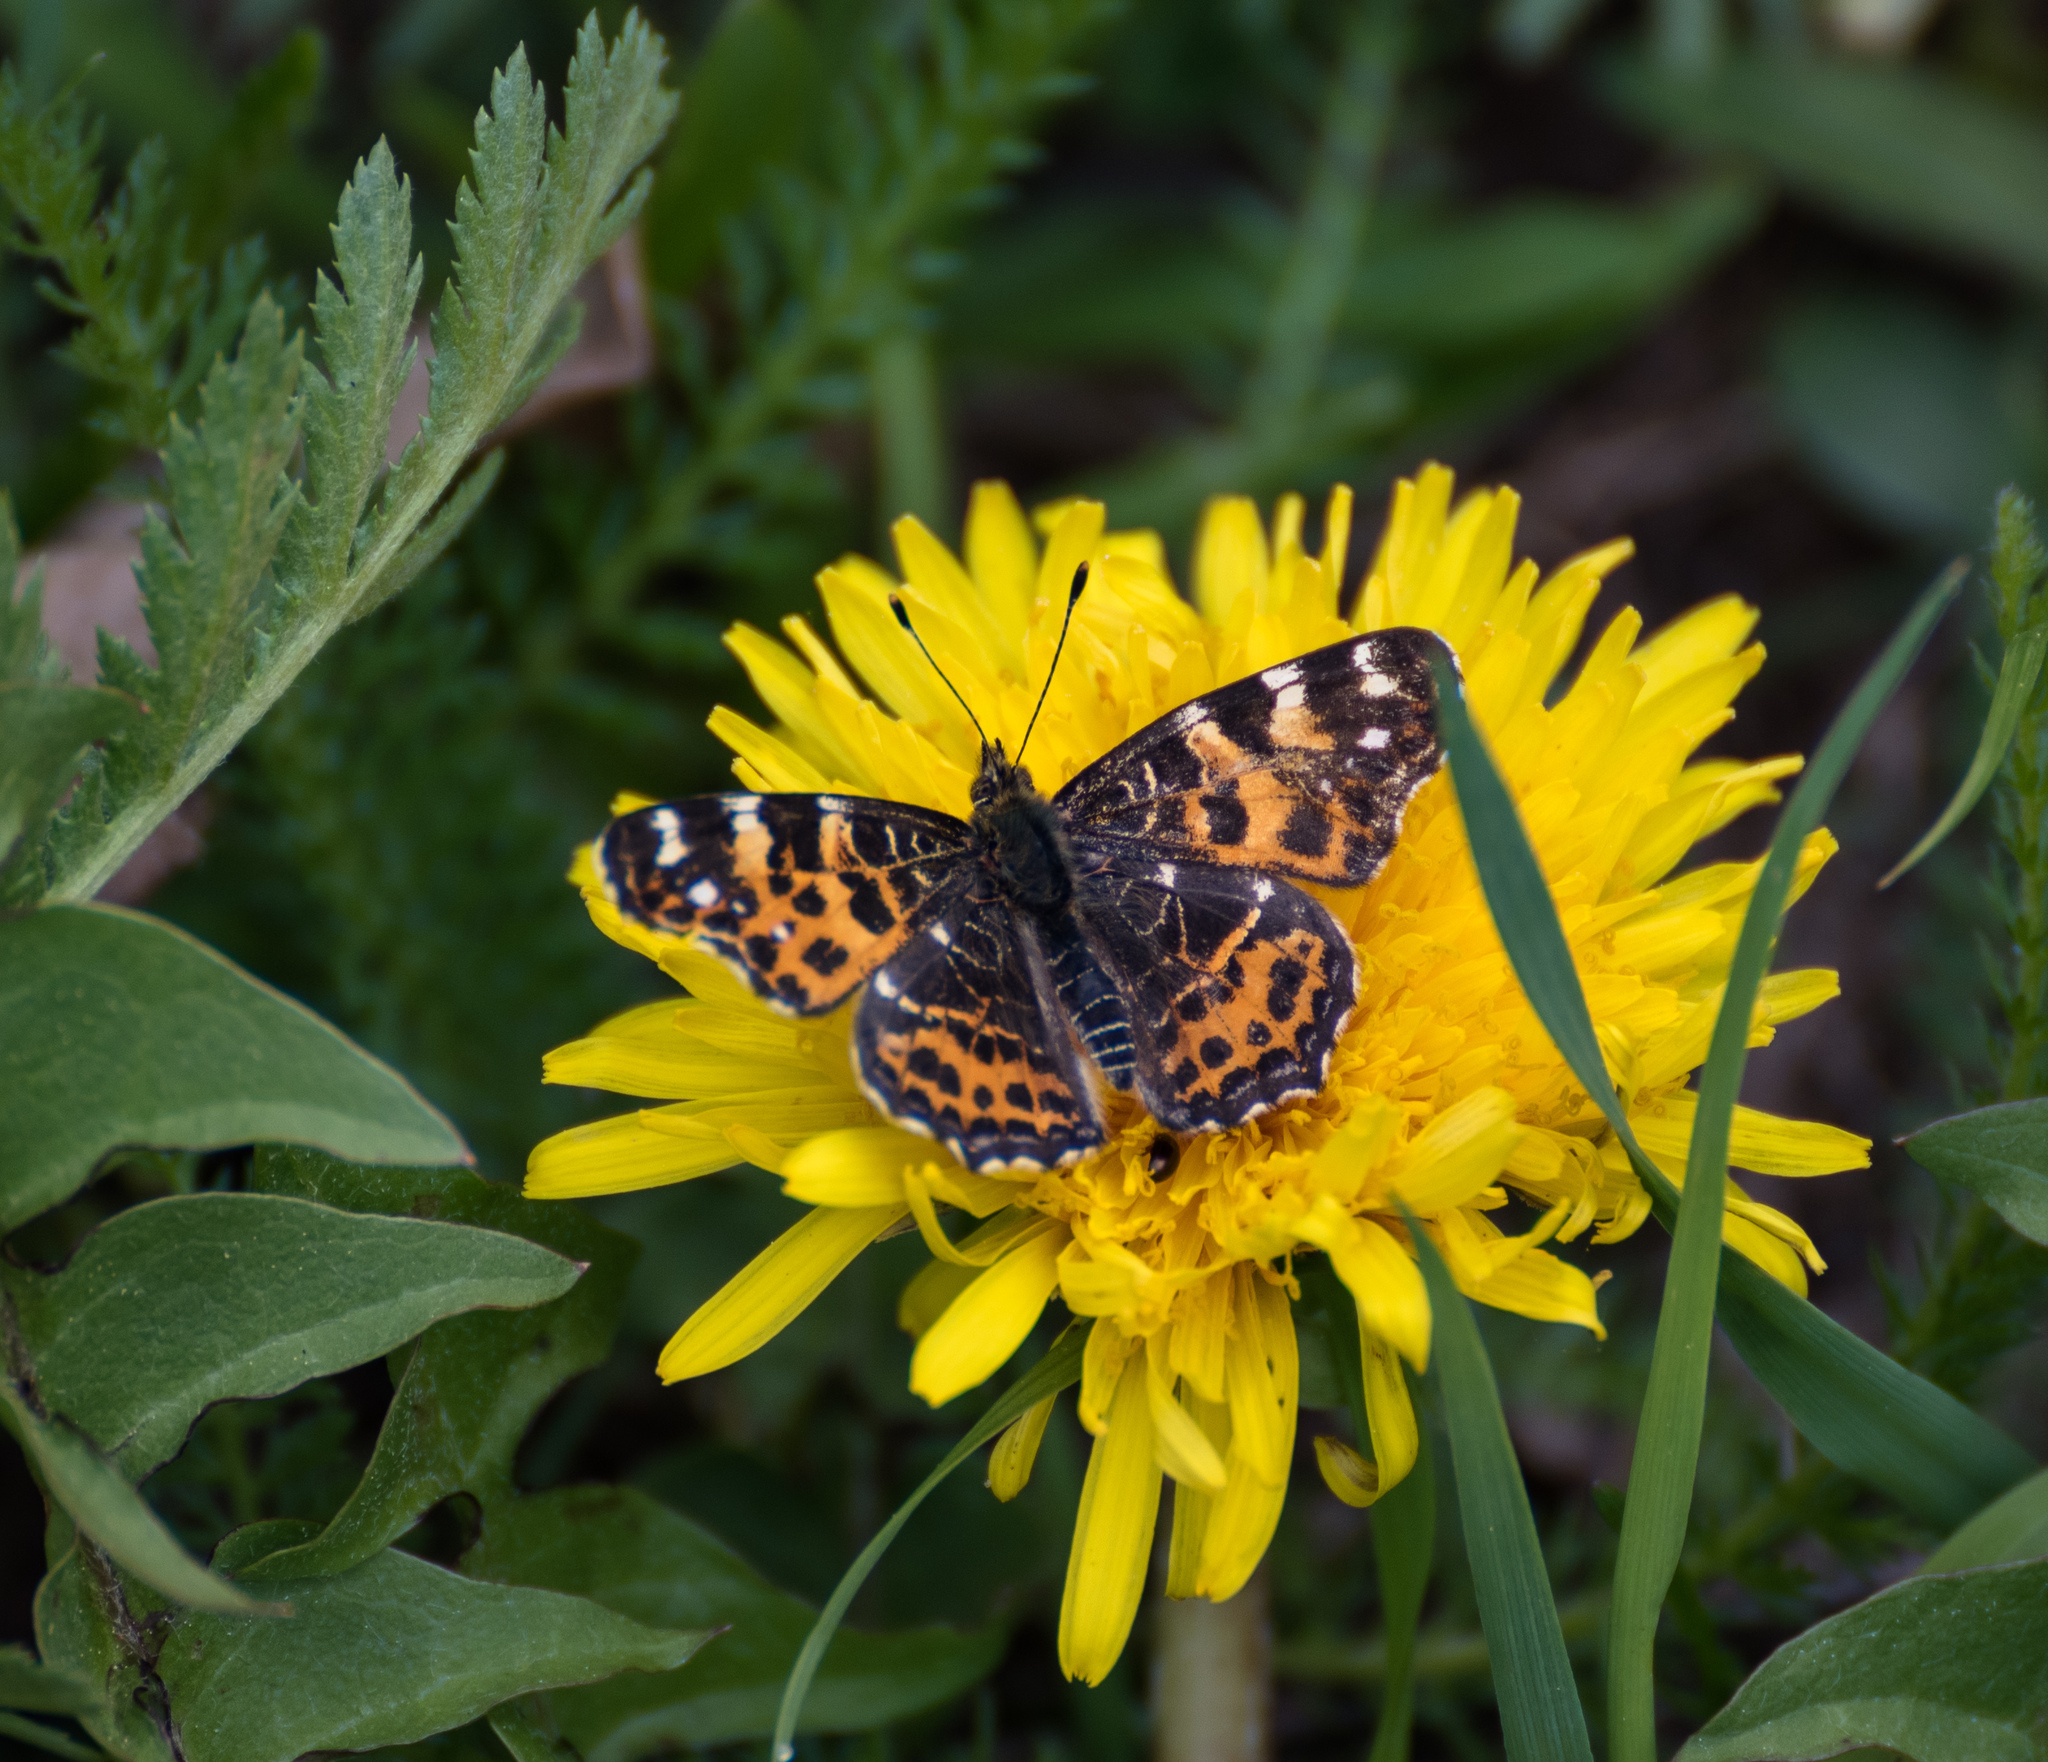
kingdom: Animalia
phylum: Arthropoda
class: Insecta
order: Lepidoptera
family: Nymphalidae
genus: Araschnia
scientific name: Araschnia levana
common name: Map butterfly
